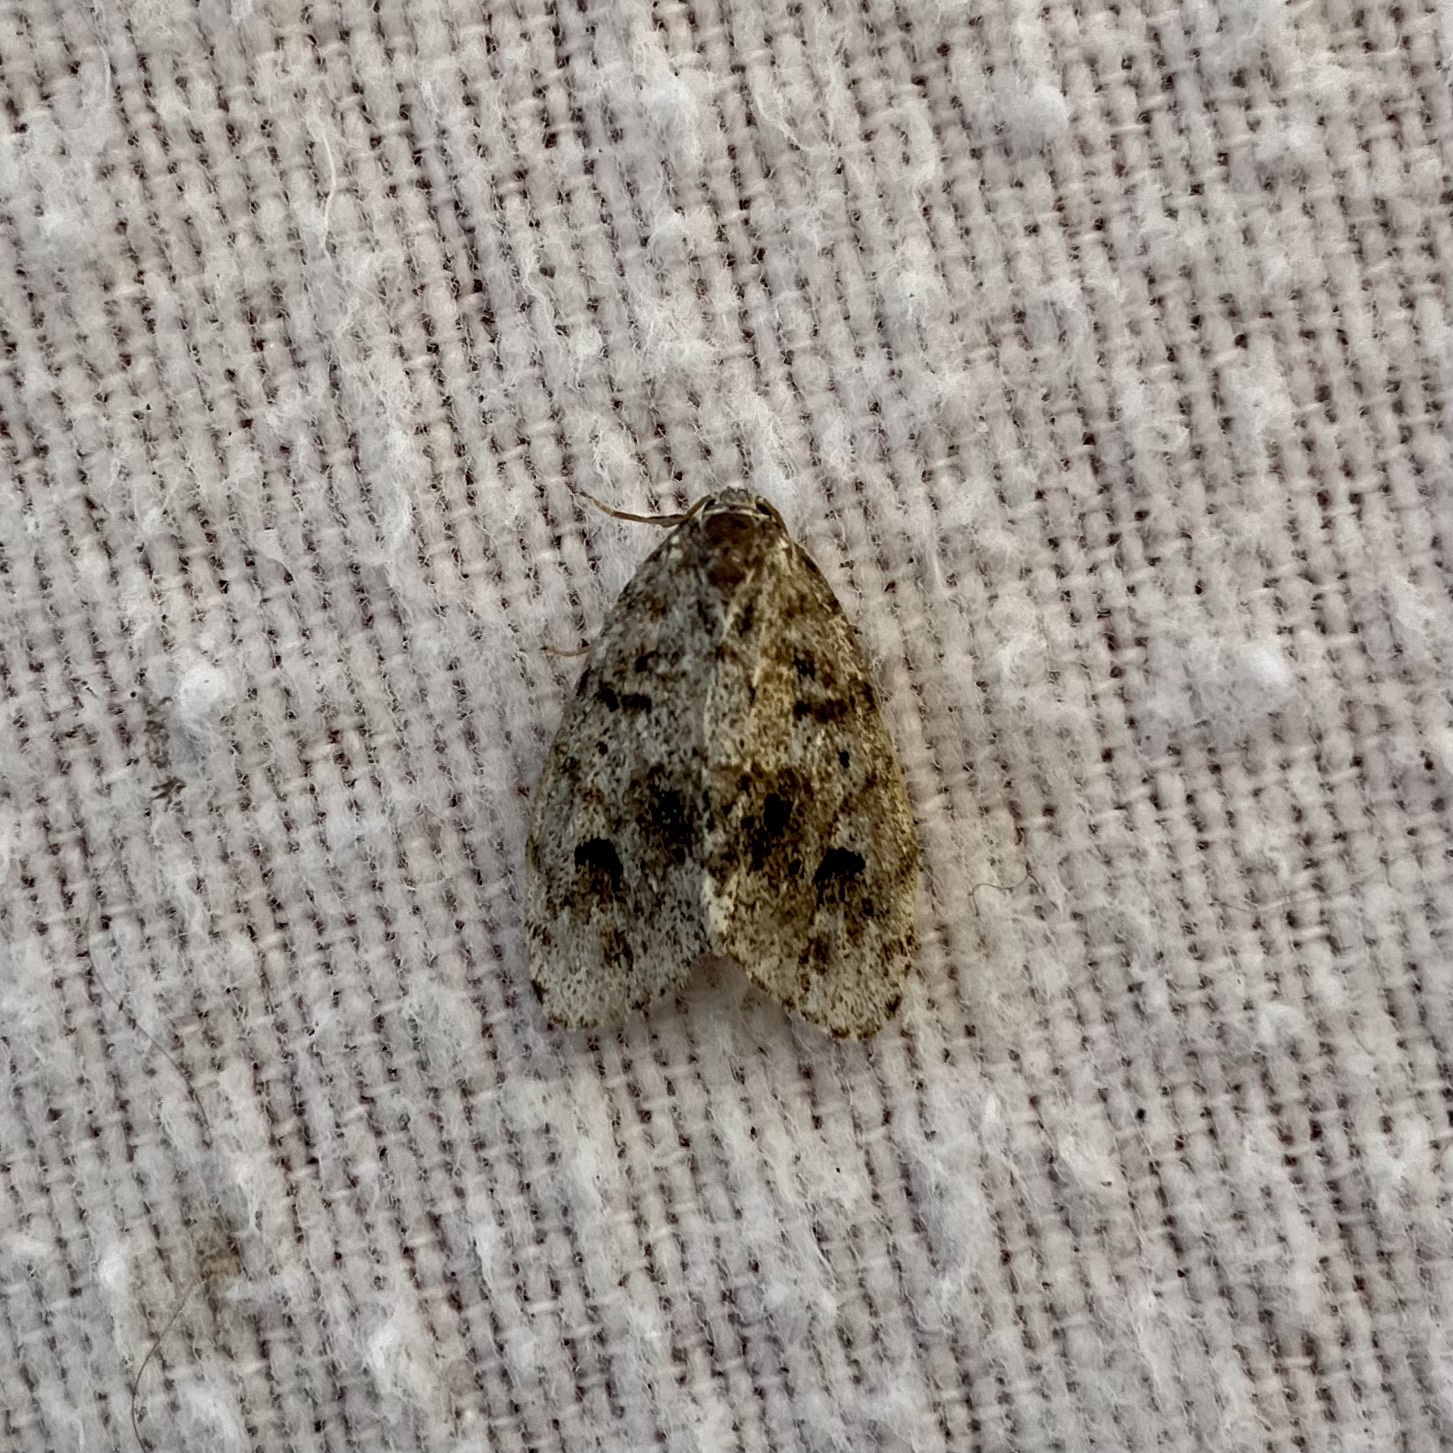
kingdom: Animalia
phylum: Arthropoda
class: Insecta
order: Lepidoptera
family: Erebidae
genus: Clemensia
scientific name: Clemensia umbrata
